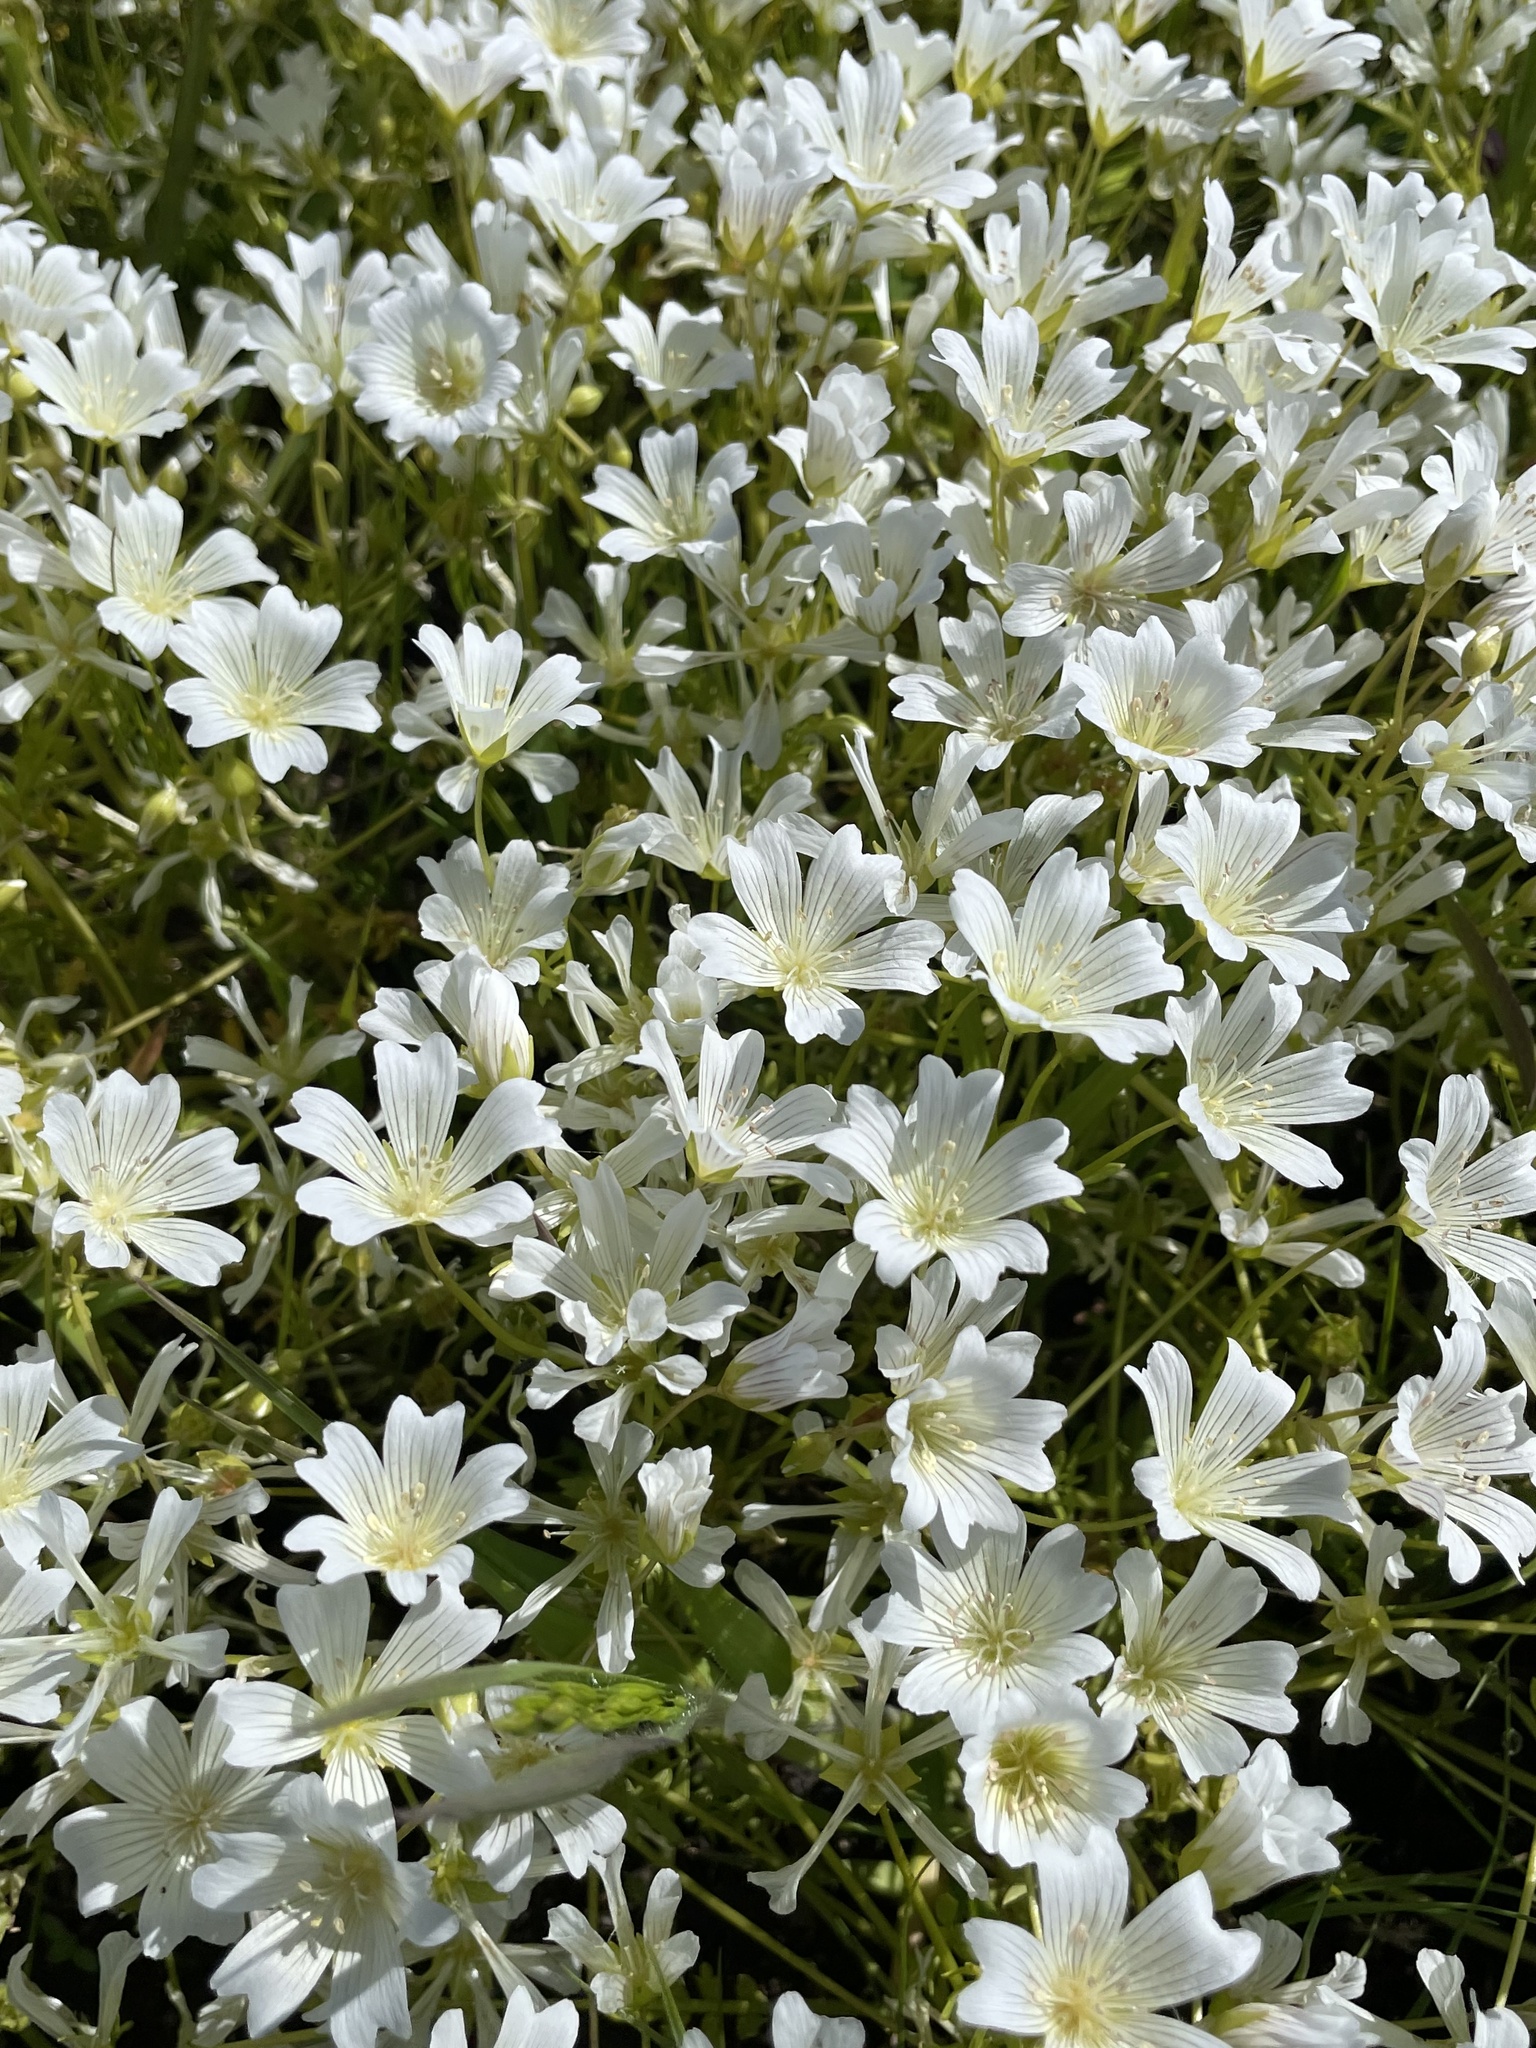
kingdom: Plantae
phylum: Tracheophyta
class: Magnoliopsida
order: Brassicales
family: Limnanthaceae
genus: Limnanthes
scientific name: Limnanthes douglasii
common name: Meadow-foam
